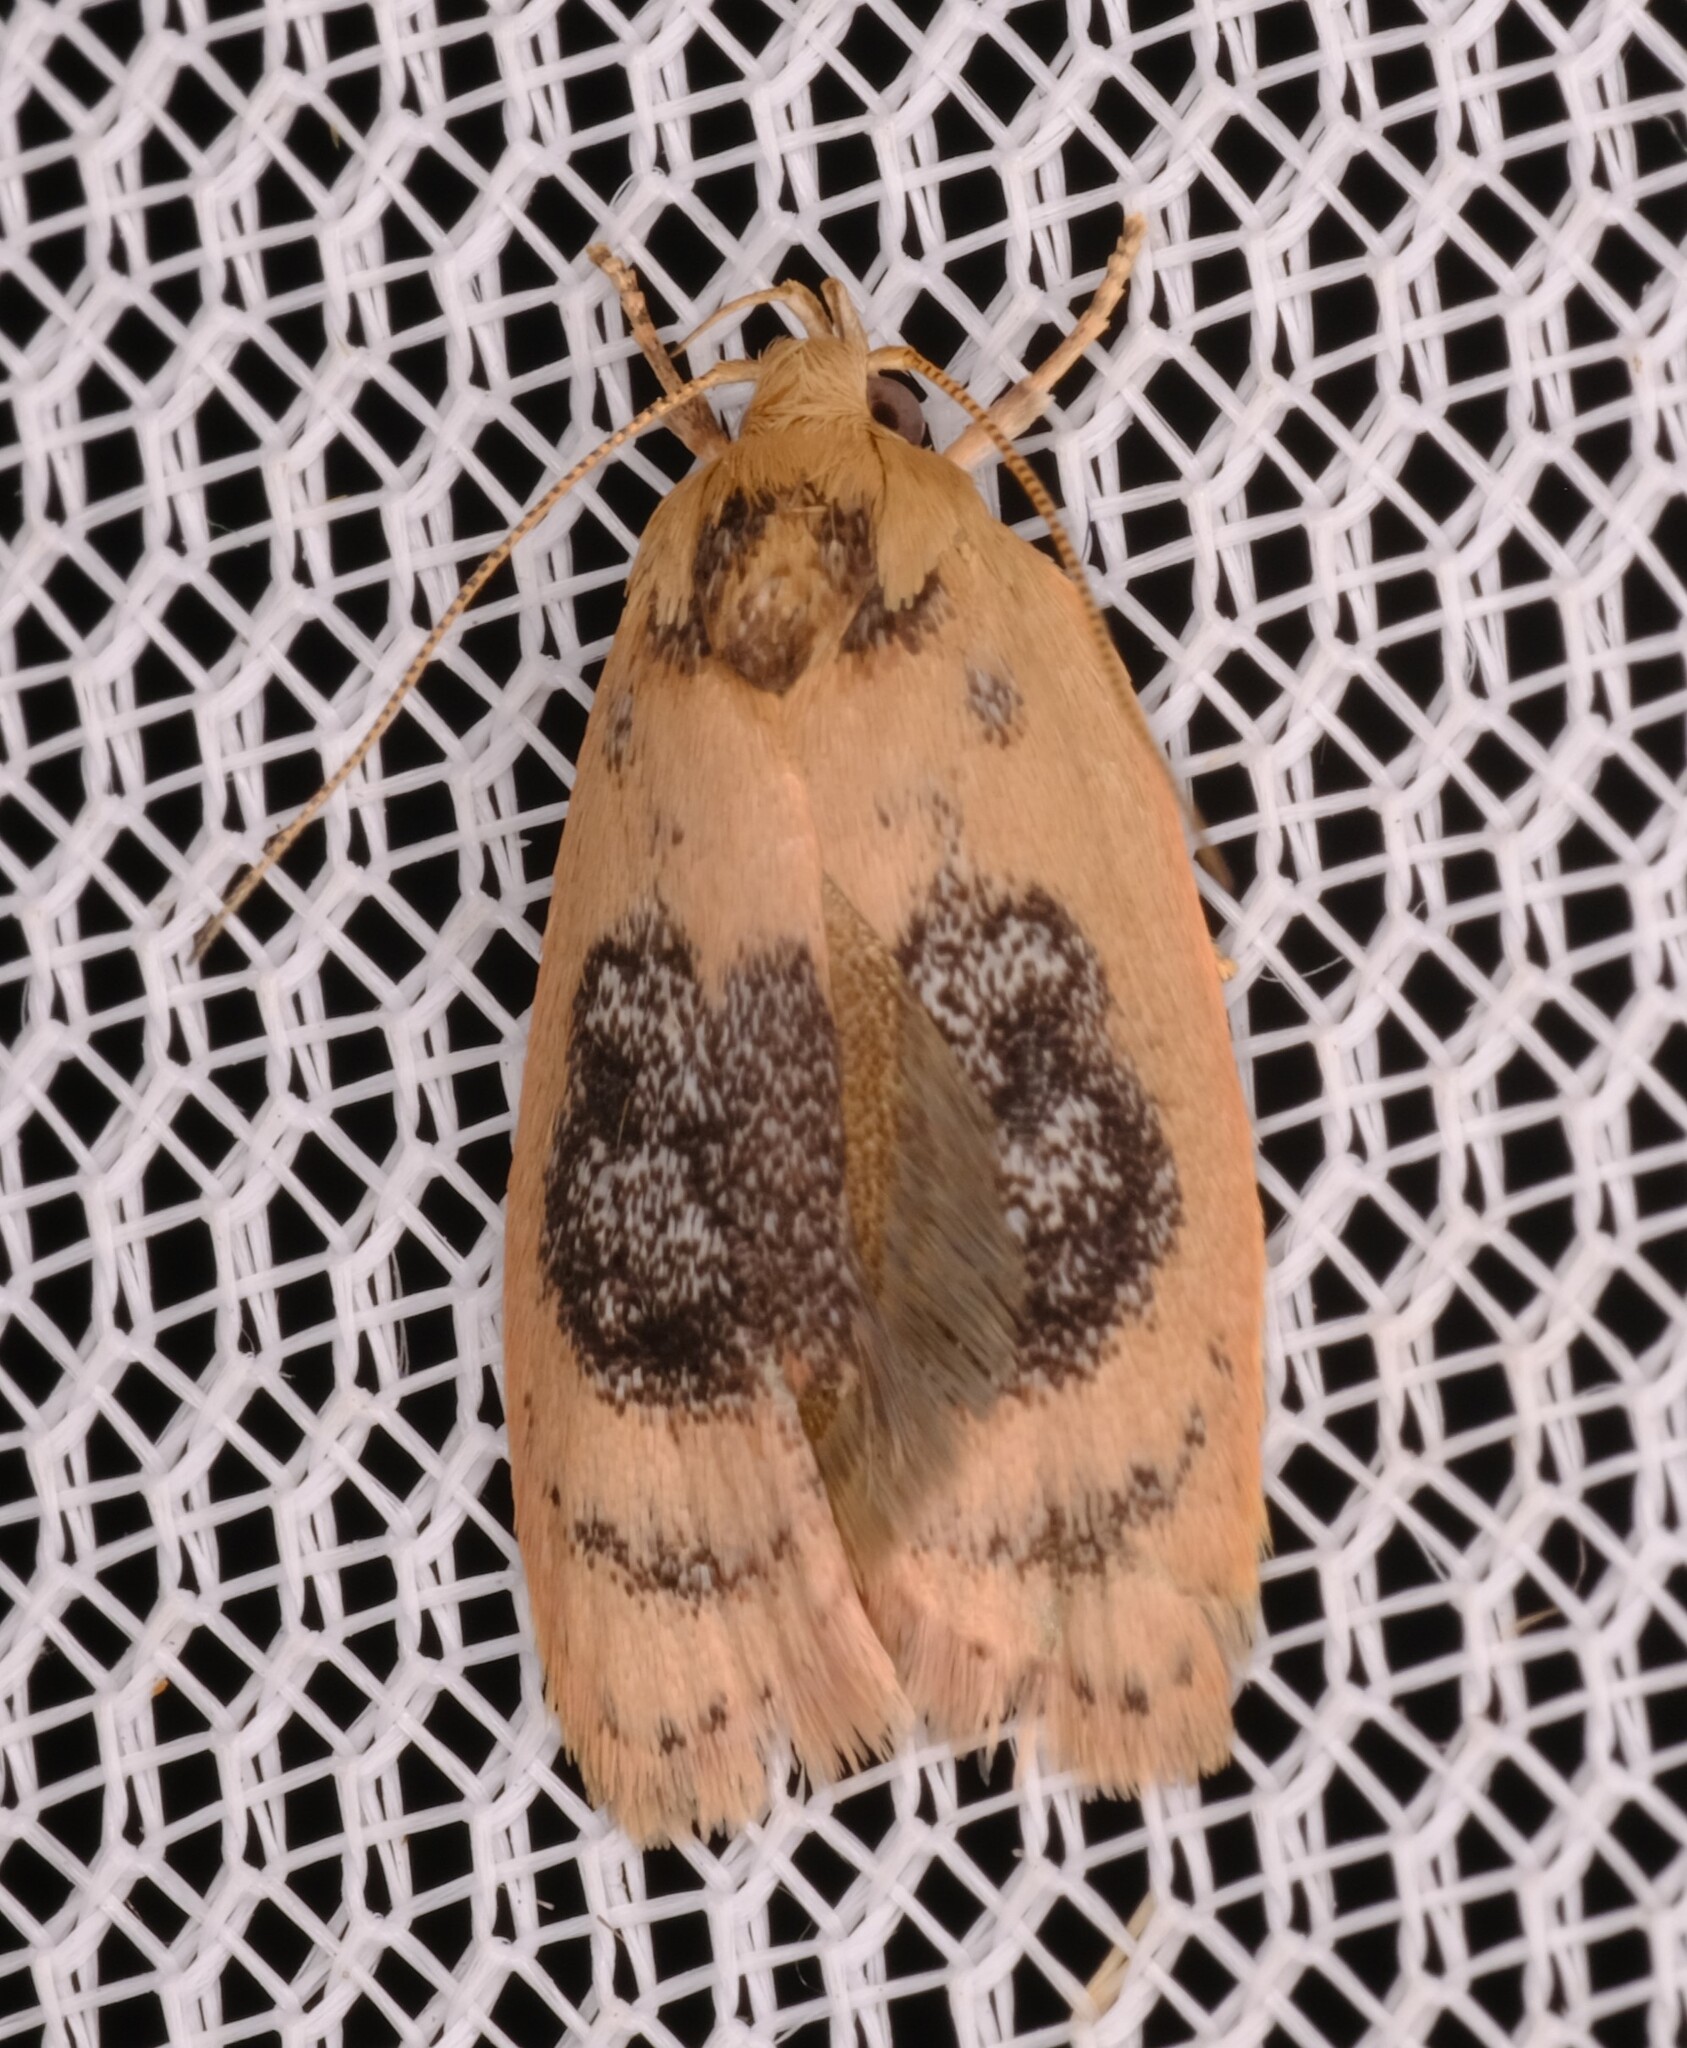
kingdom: Animalia
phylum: Arthropoda
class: Insecta
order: Lepidoptera
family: Oecophoridae
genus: Garrha
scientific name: Garrha ocellifera
